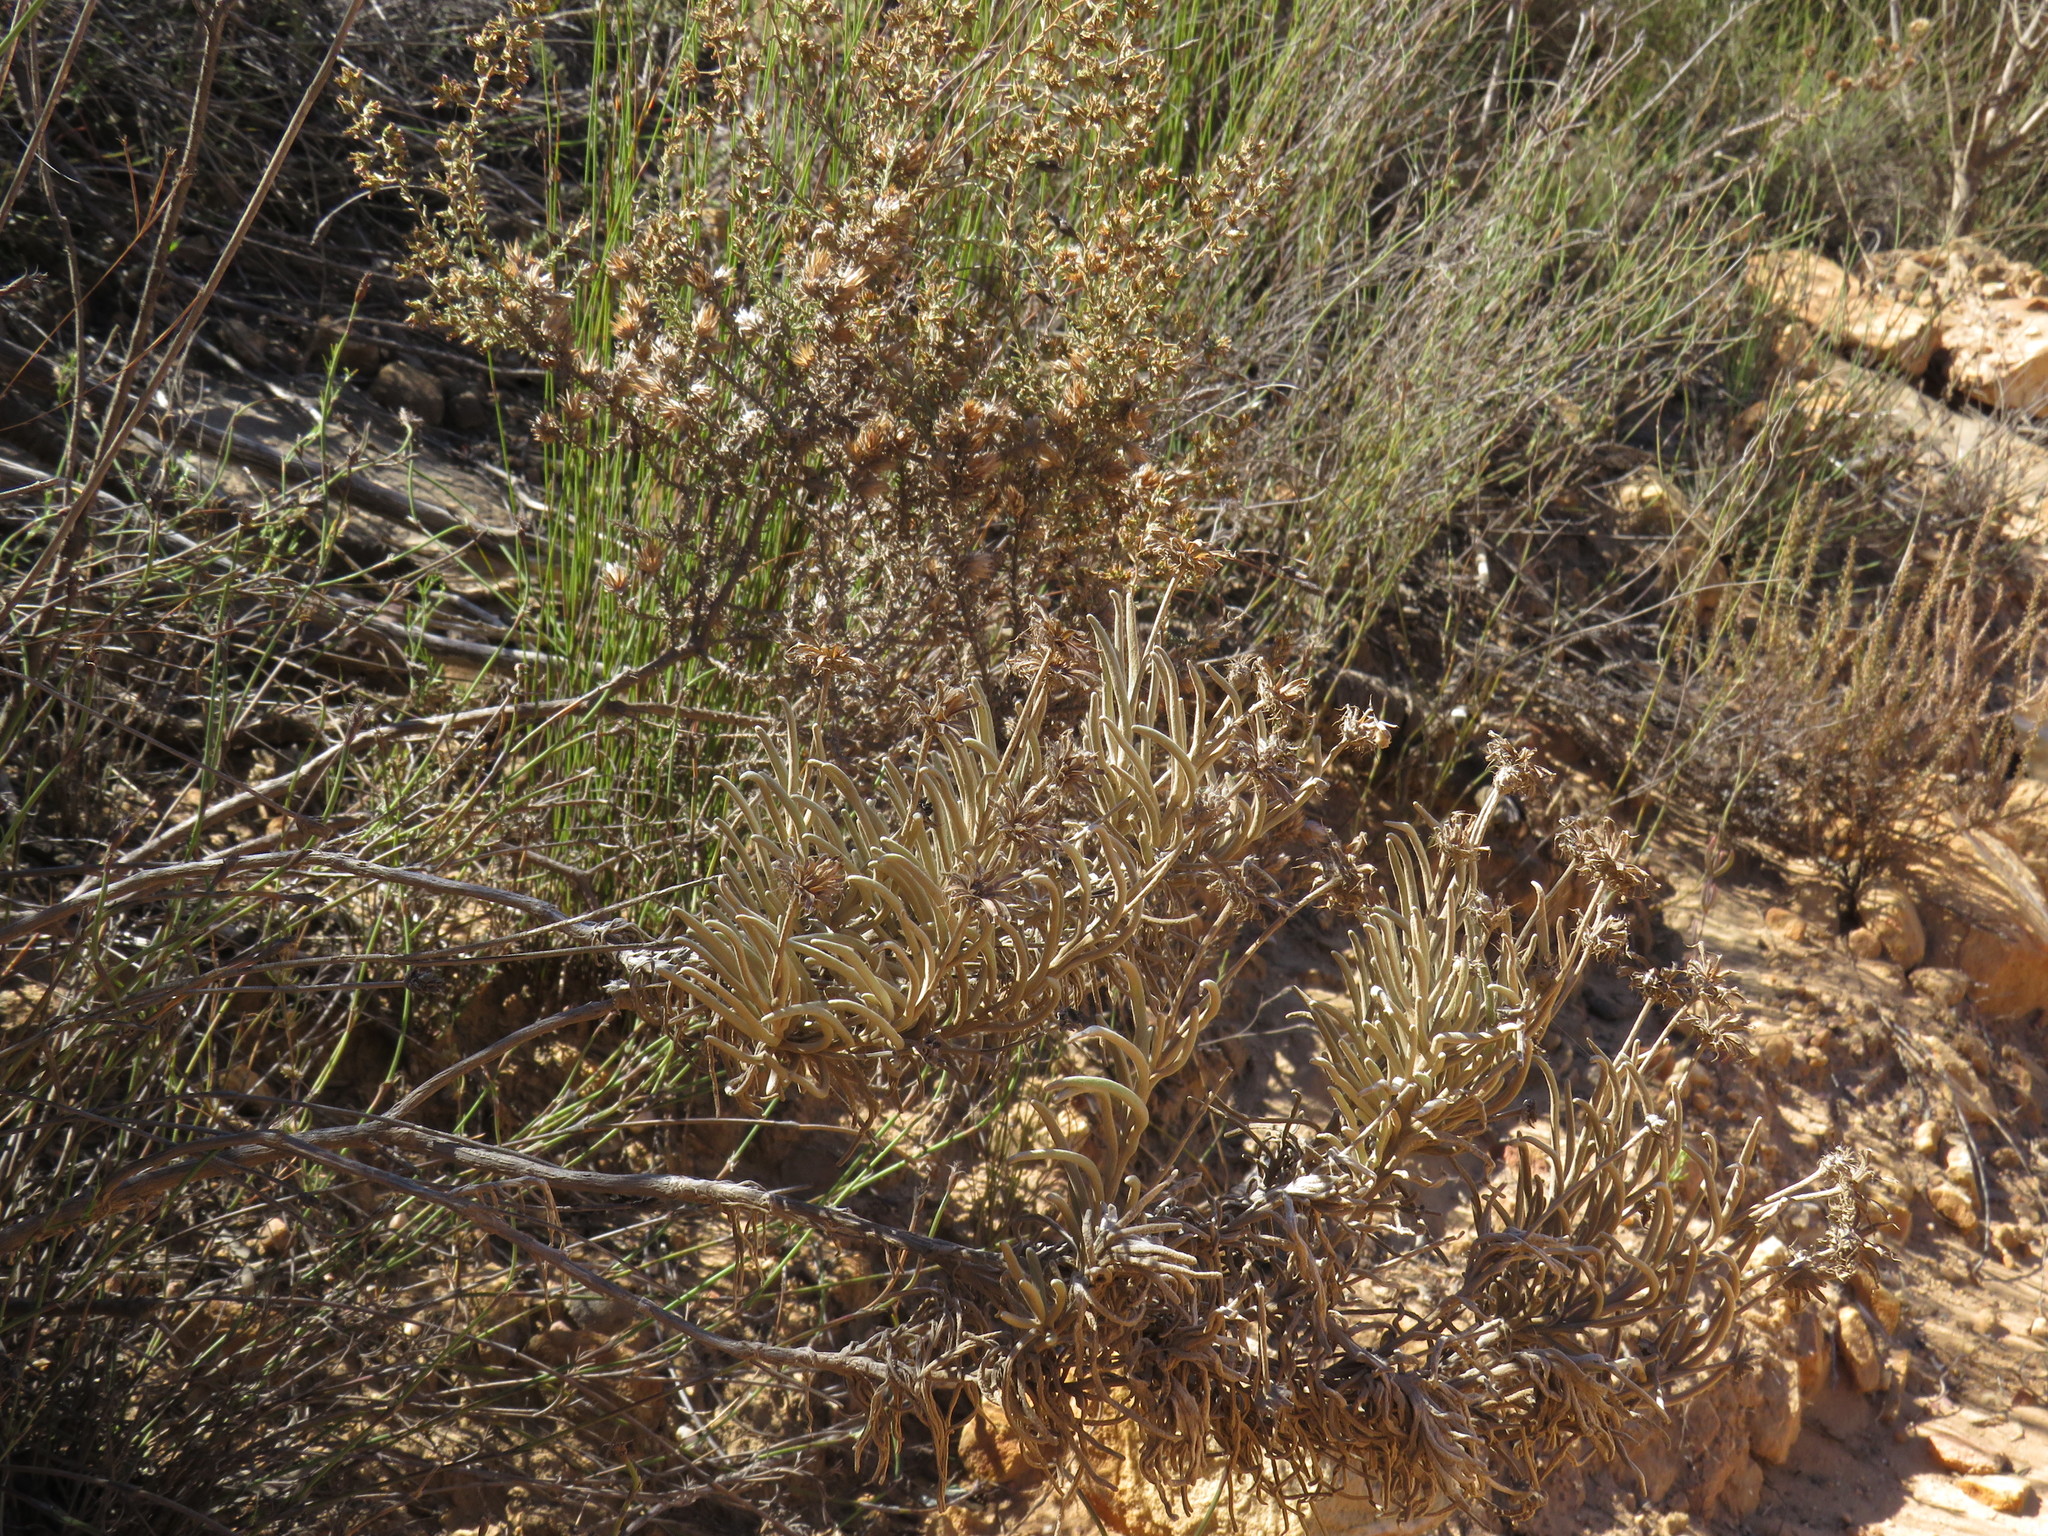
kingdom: Plantae
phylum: Tracheophyta
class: Magnoliopsida
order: Asterales
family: Asteraceae
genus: Syncarpha
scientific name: Syncarpha gnaphaloides
